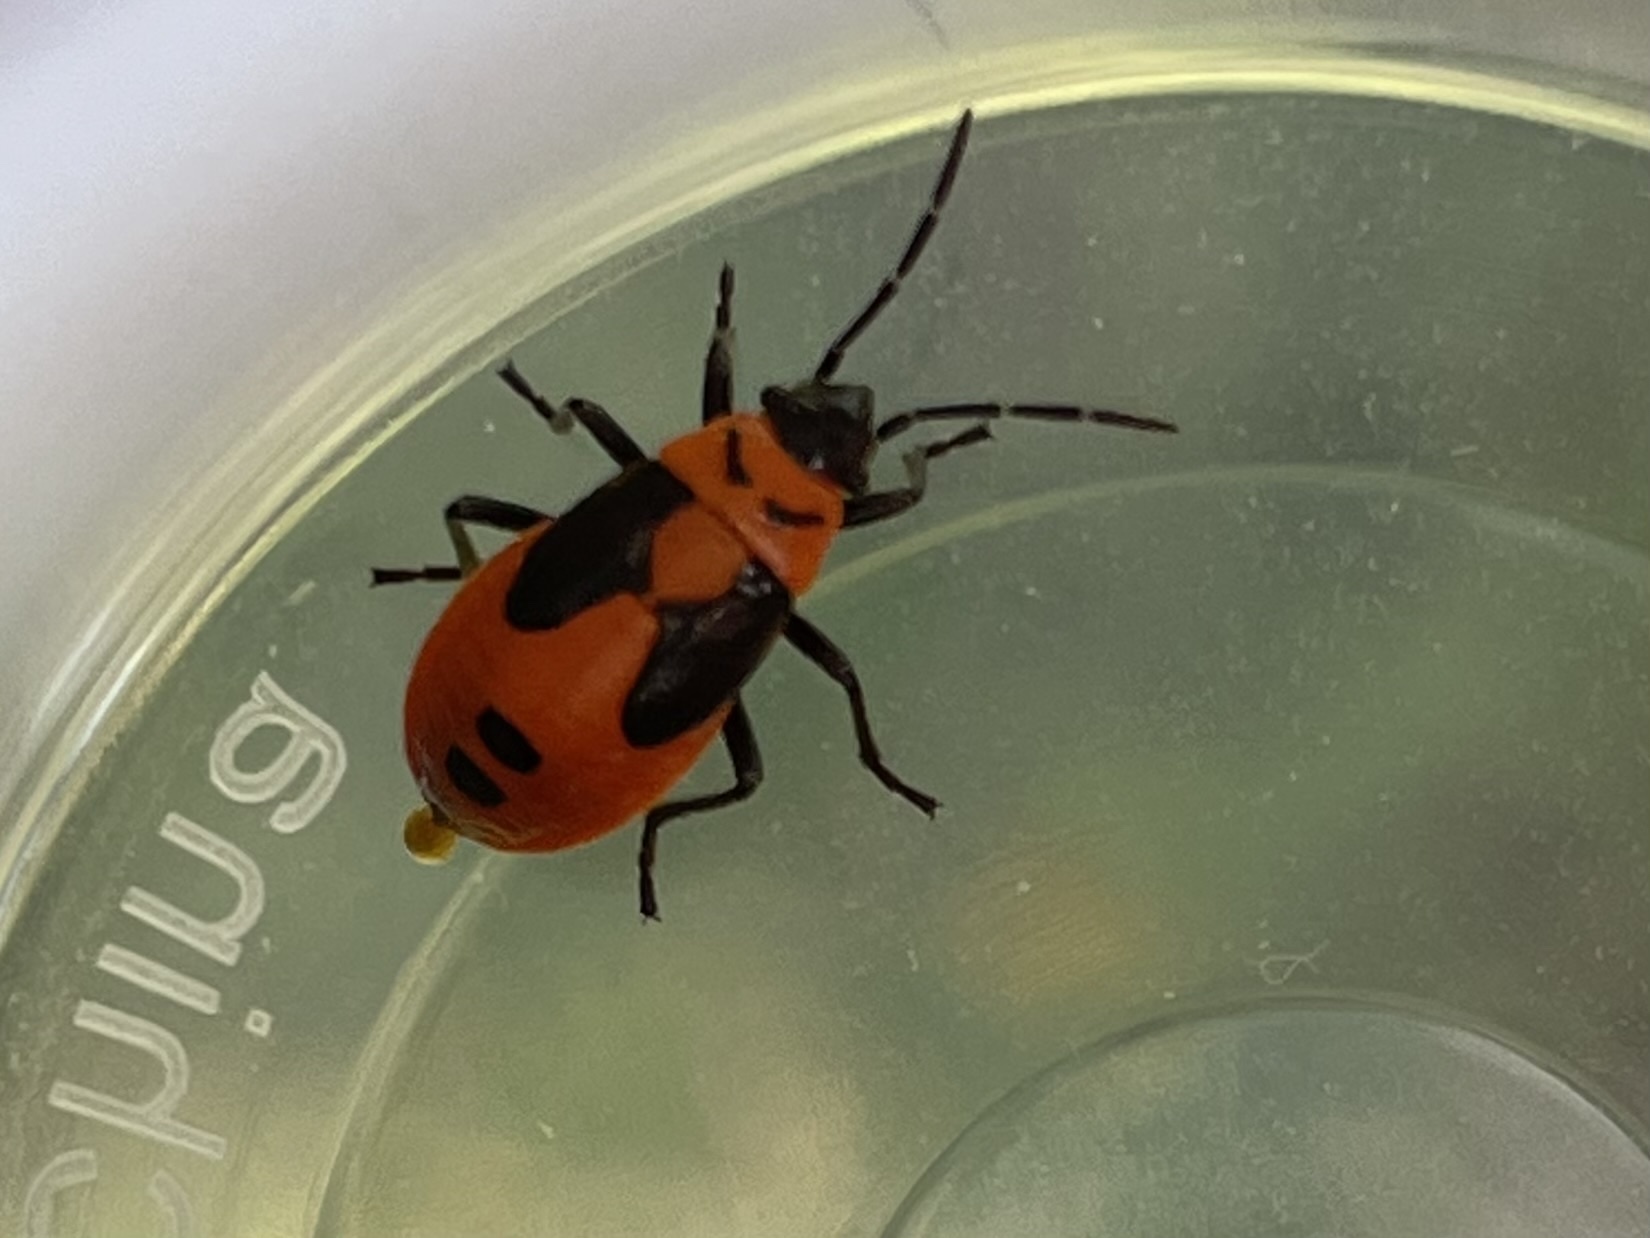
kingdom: Animalia
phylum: Arthropoda
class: Insecta
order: Hemiptera
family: Lygaeidae
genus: Lygaeus
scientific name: Lygaeus turcicus
